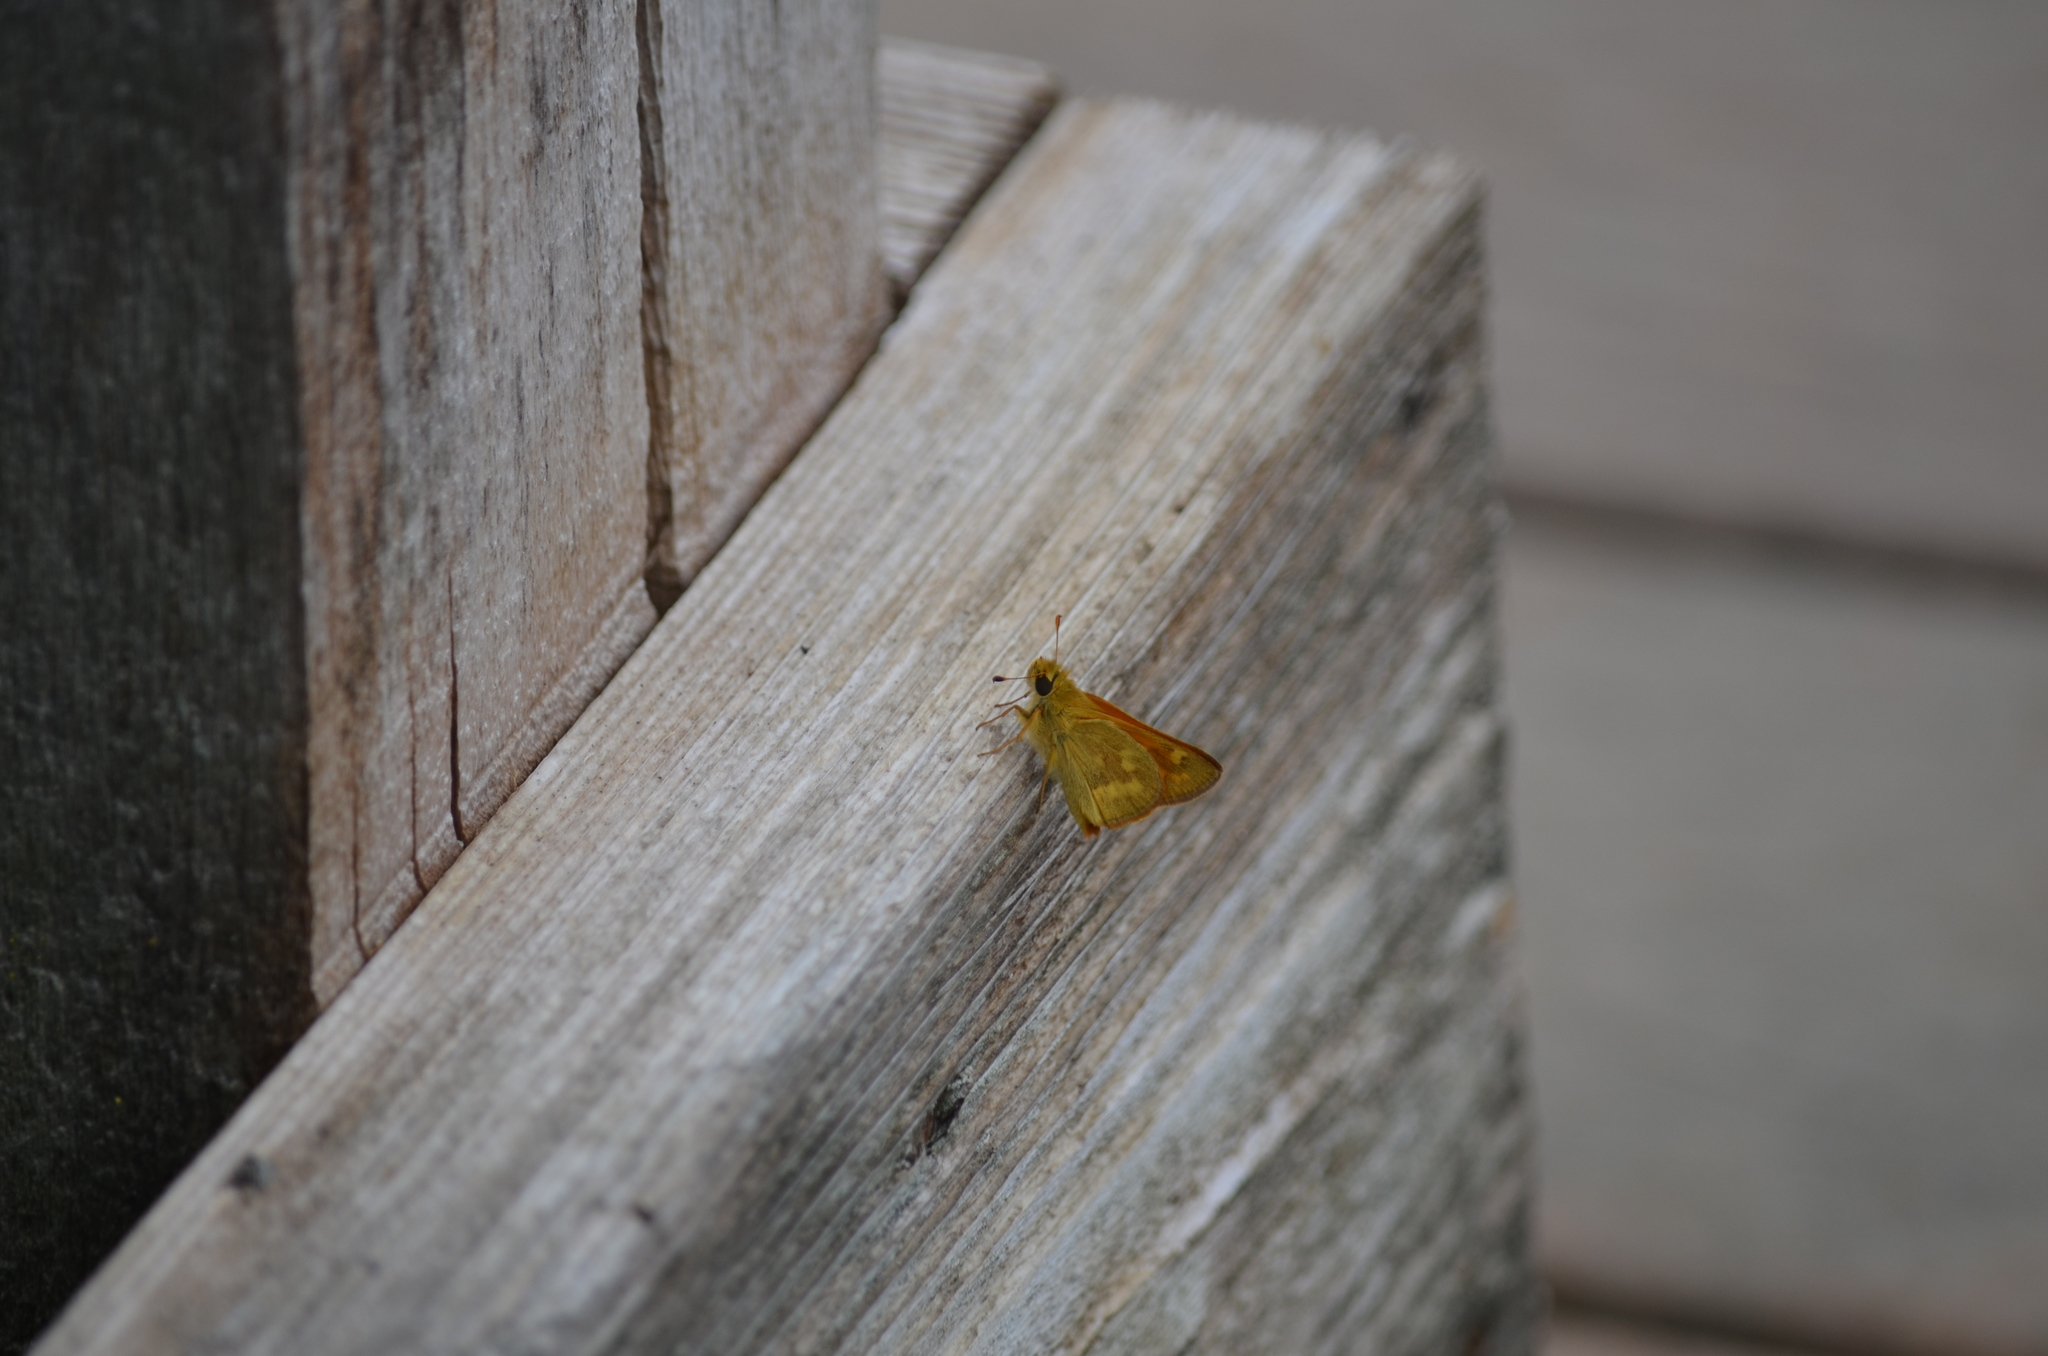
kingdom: Animalia
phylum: Arthropoda
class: Insecta
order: Lepidoptera
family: Hesperiidae
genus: Ochlodes
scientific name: Ochlodes sylvanoides
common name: Woodland skipper
